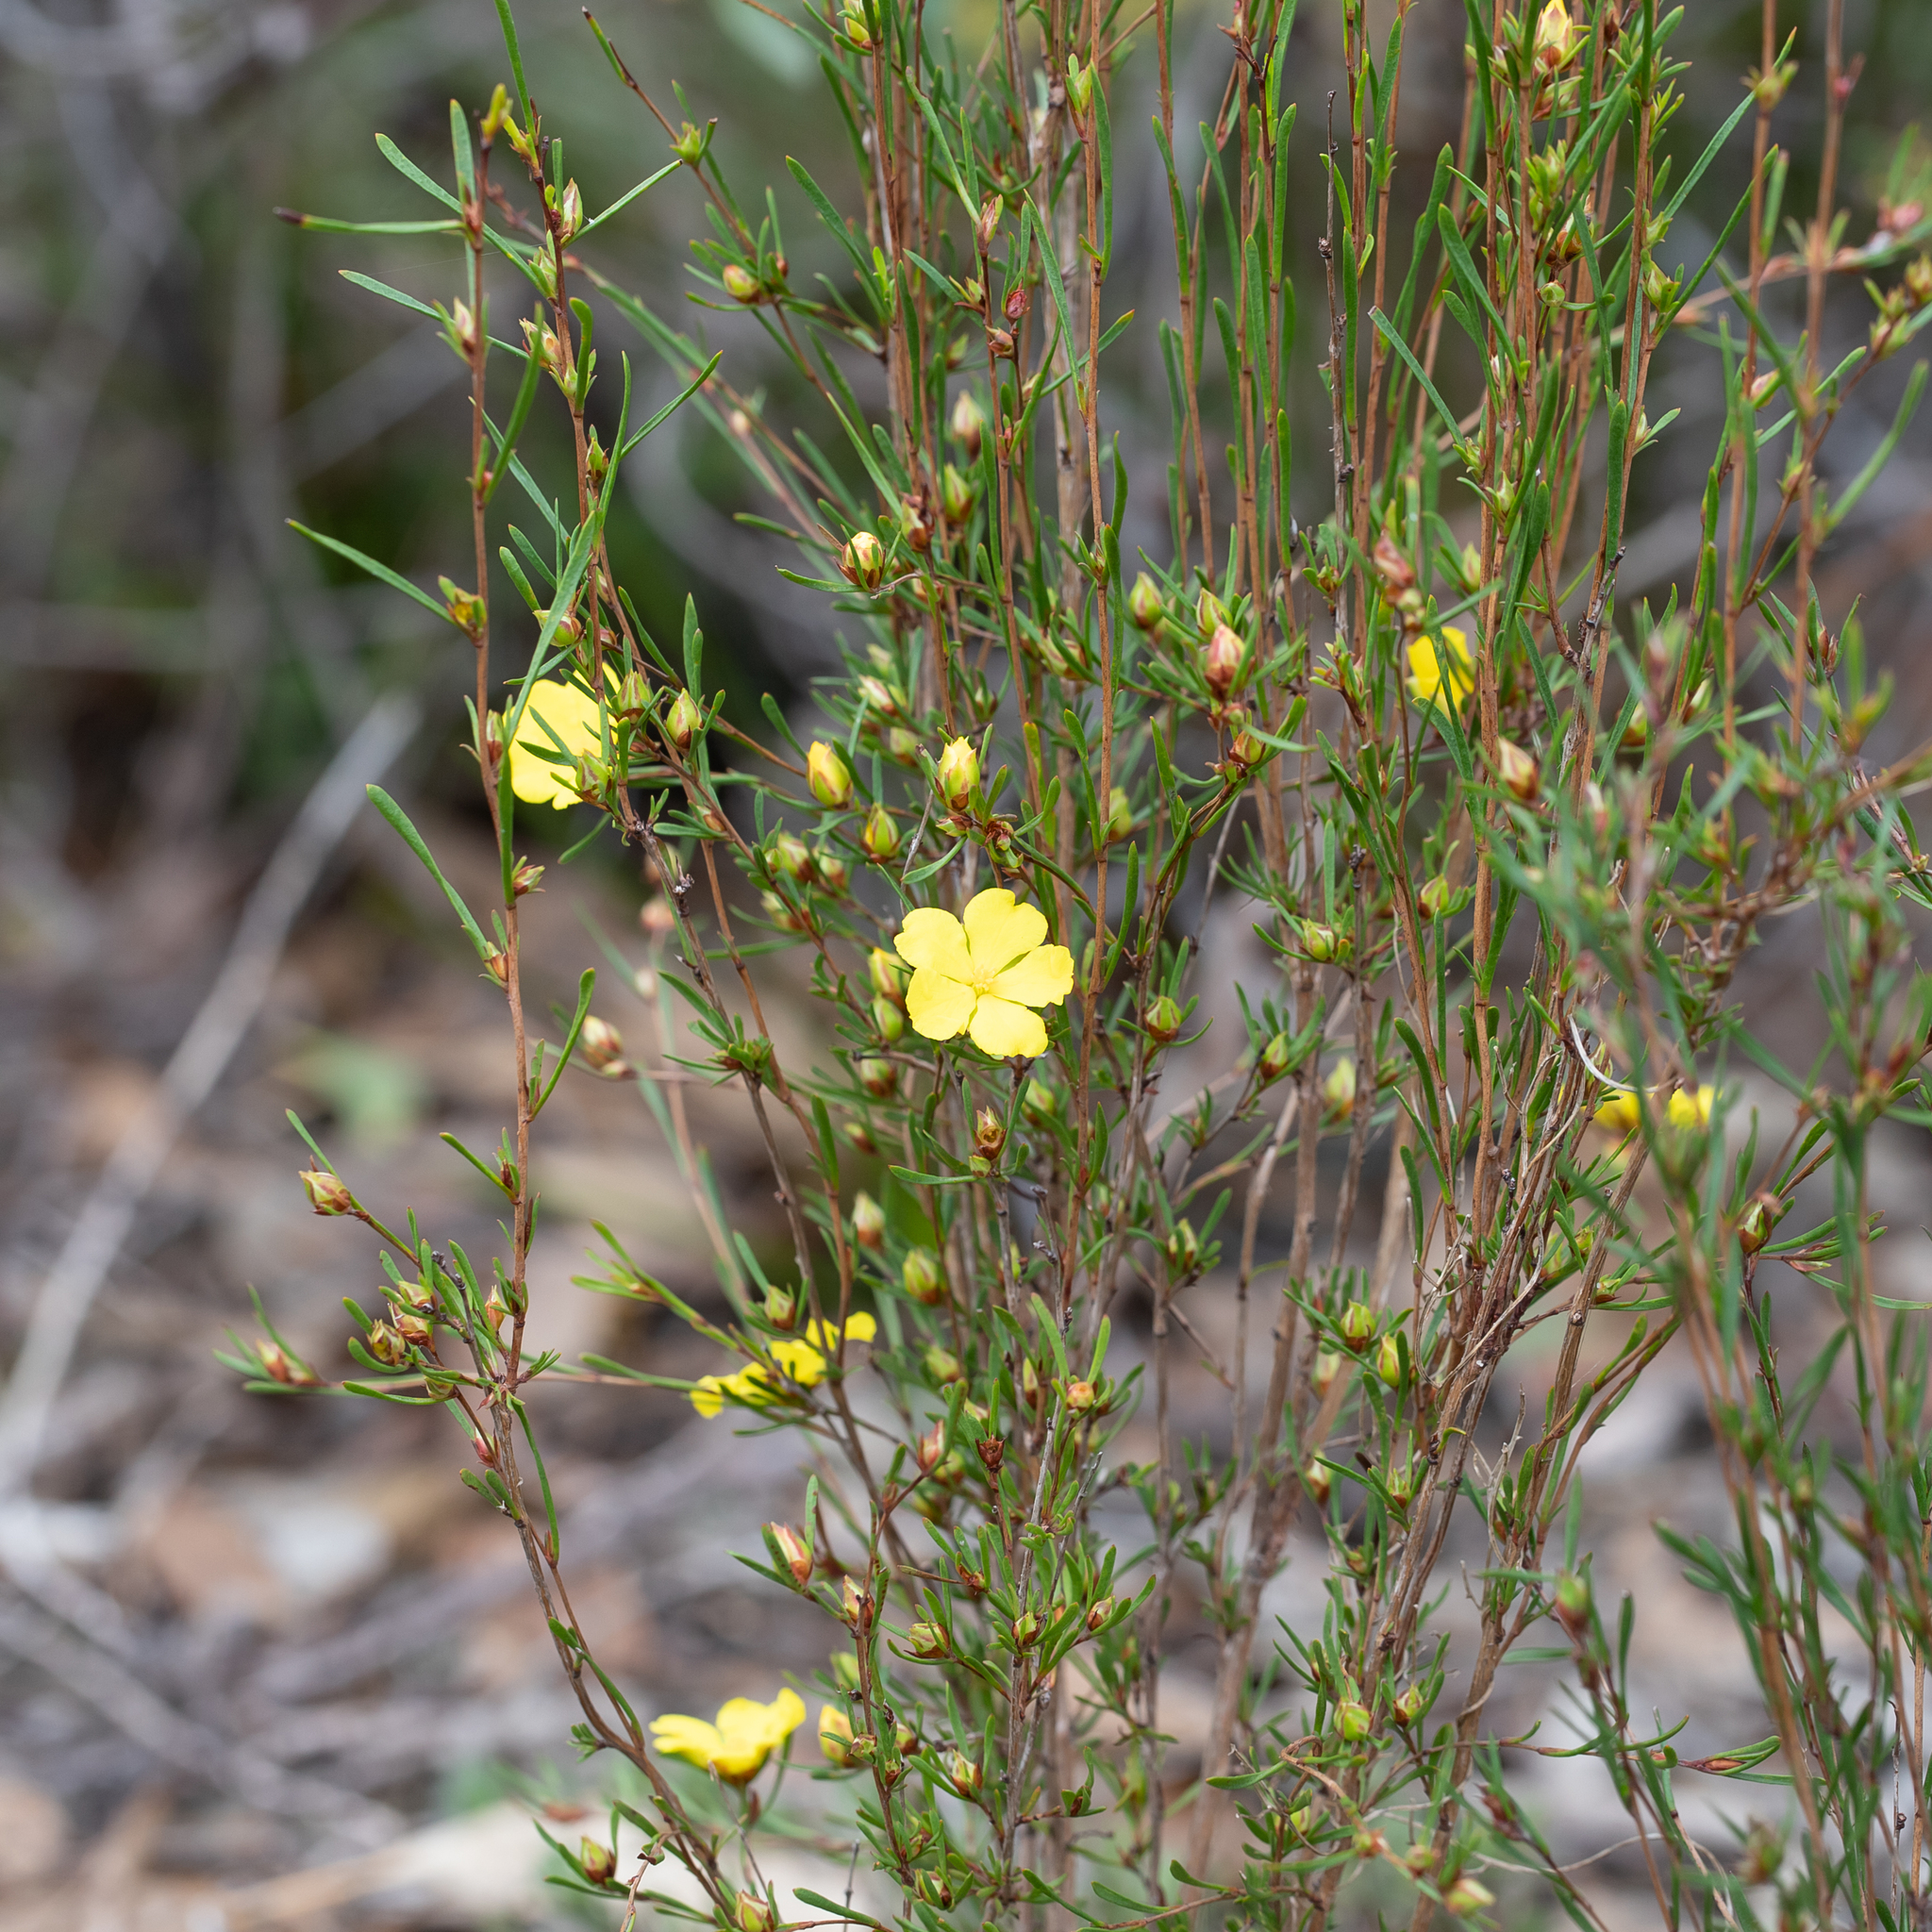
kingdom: Plantae
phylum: Tracheophyta
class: Magnoliopsida
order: Dilleniales
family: Dilleniaceae
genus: Hibbertia
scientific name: Hibbertia virgata
